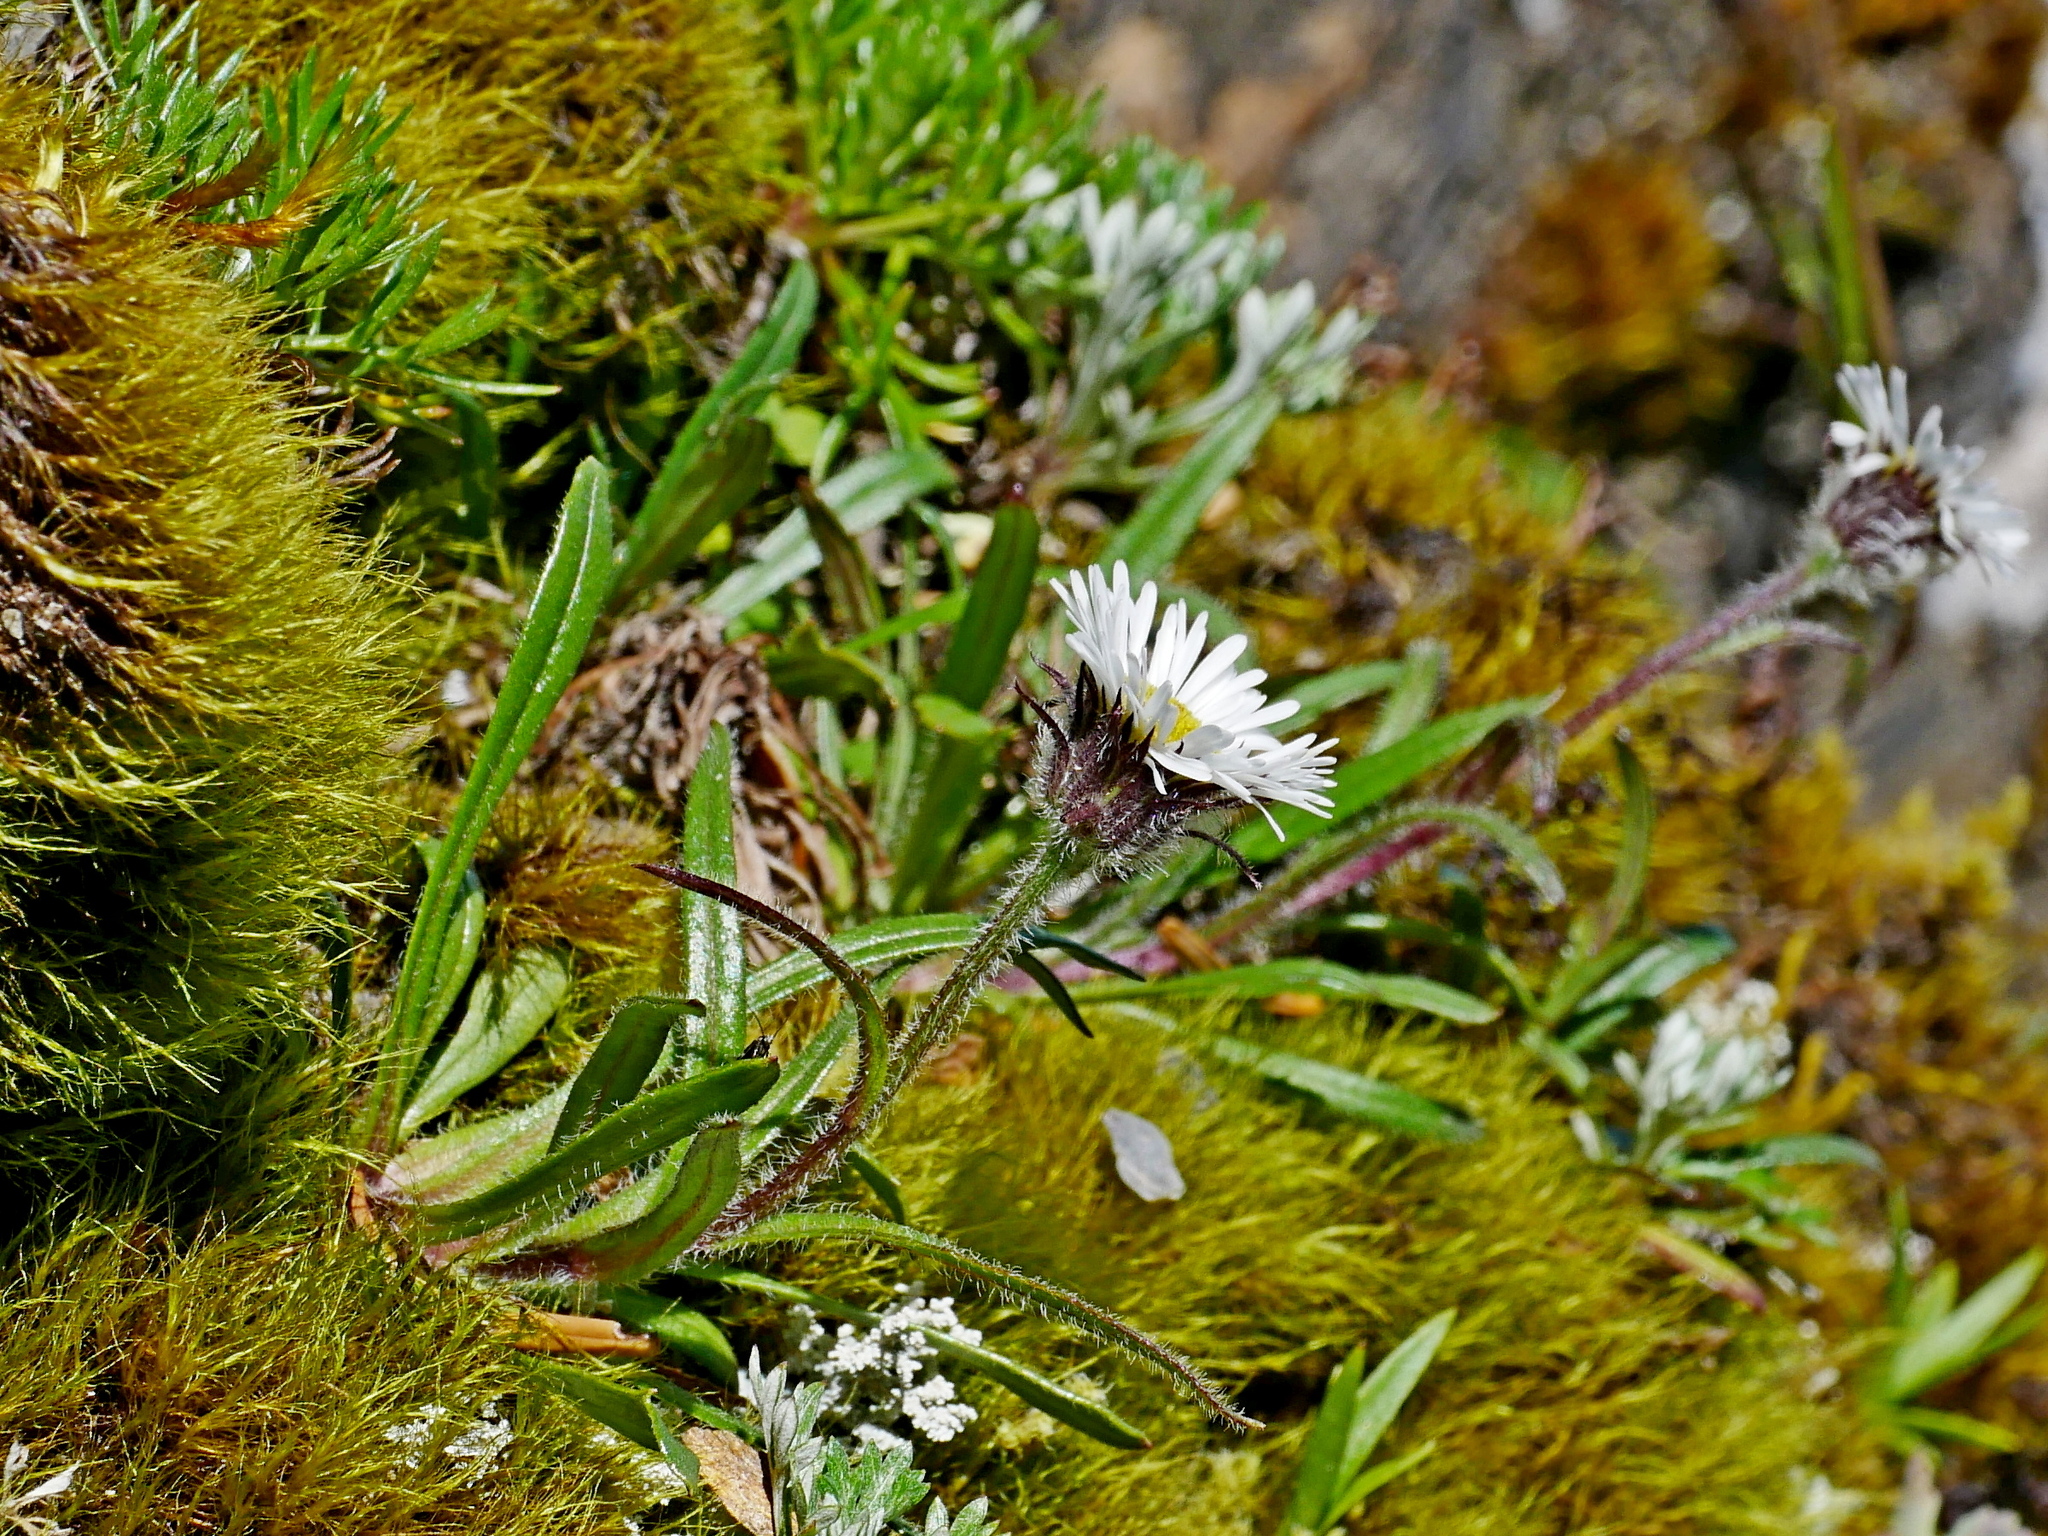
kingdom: Plantae
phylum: Tracheophyta
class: Magnoliopsida
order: Asterales
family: Asteraceae
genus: Erigeron
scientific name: Erigeron morrisonensis
